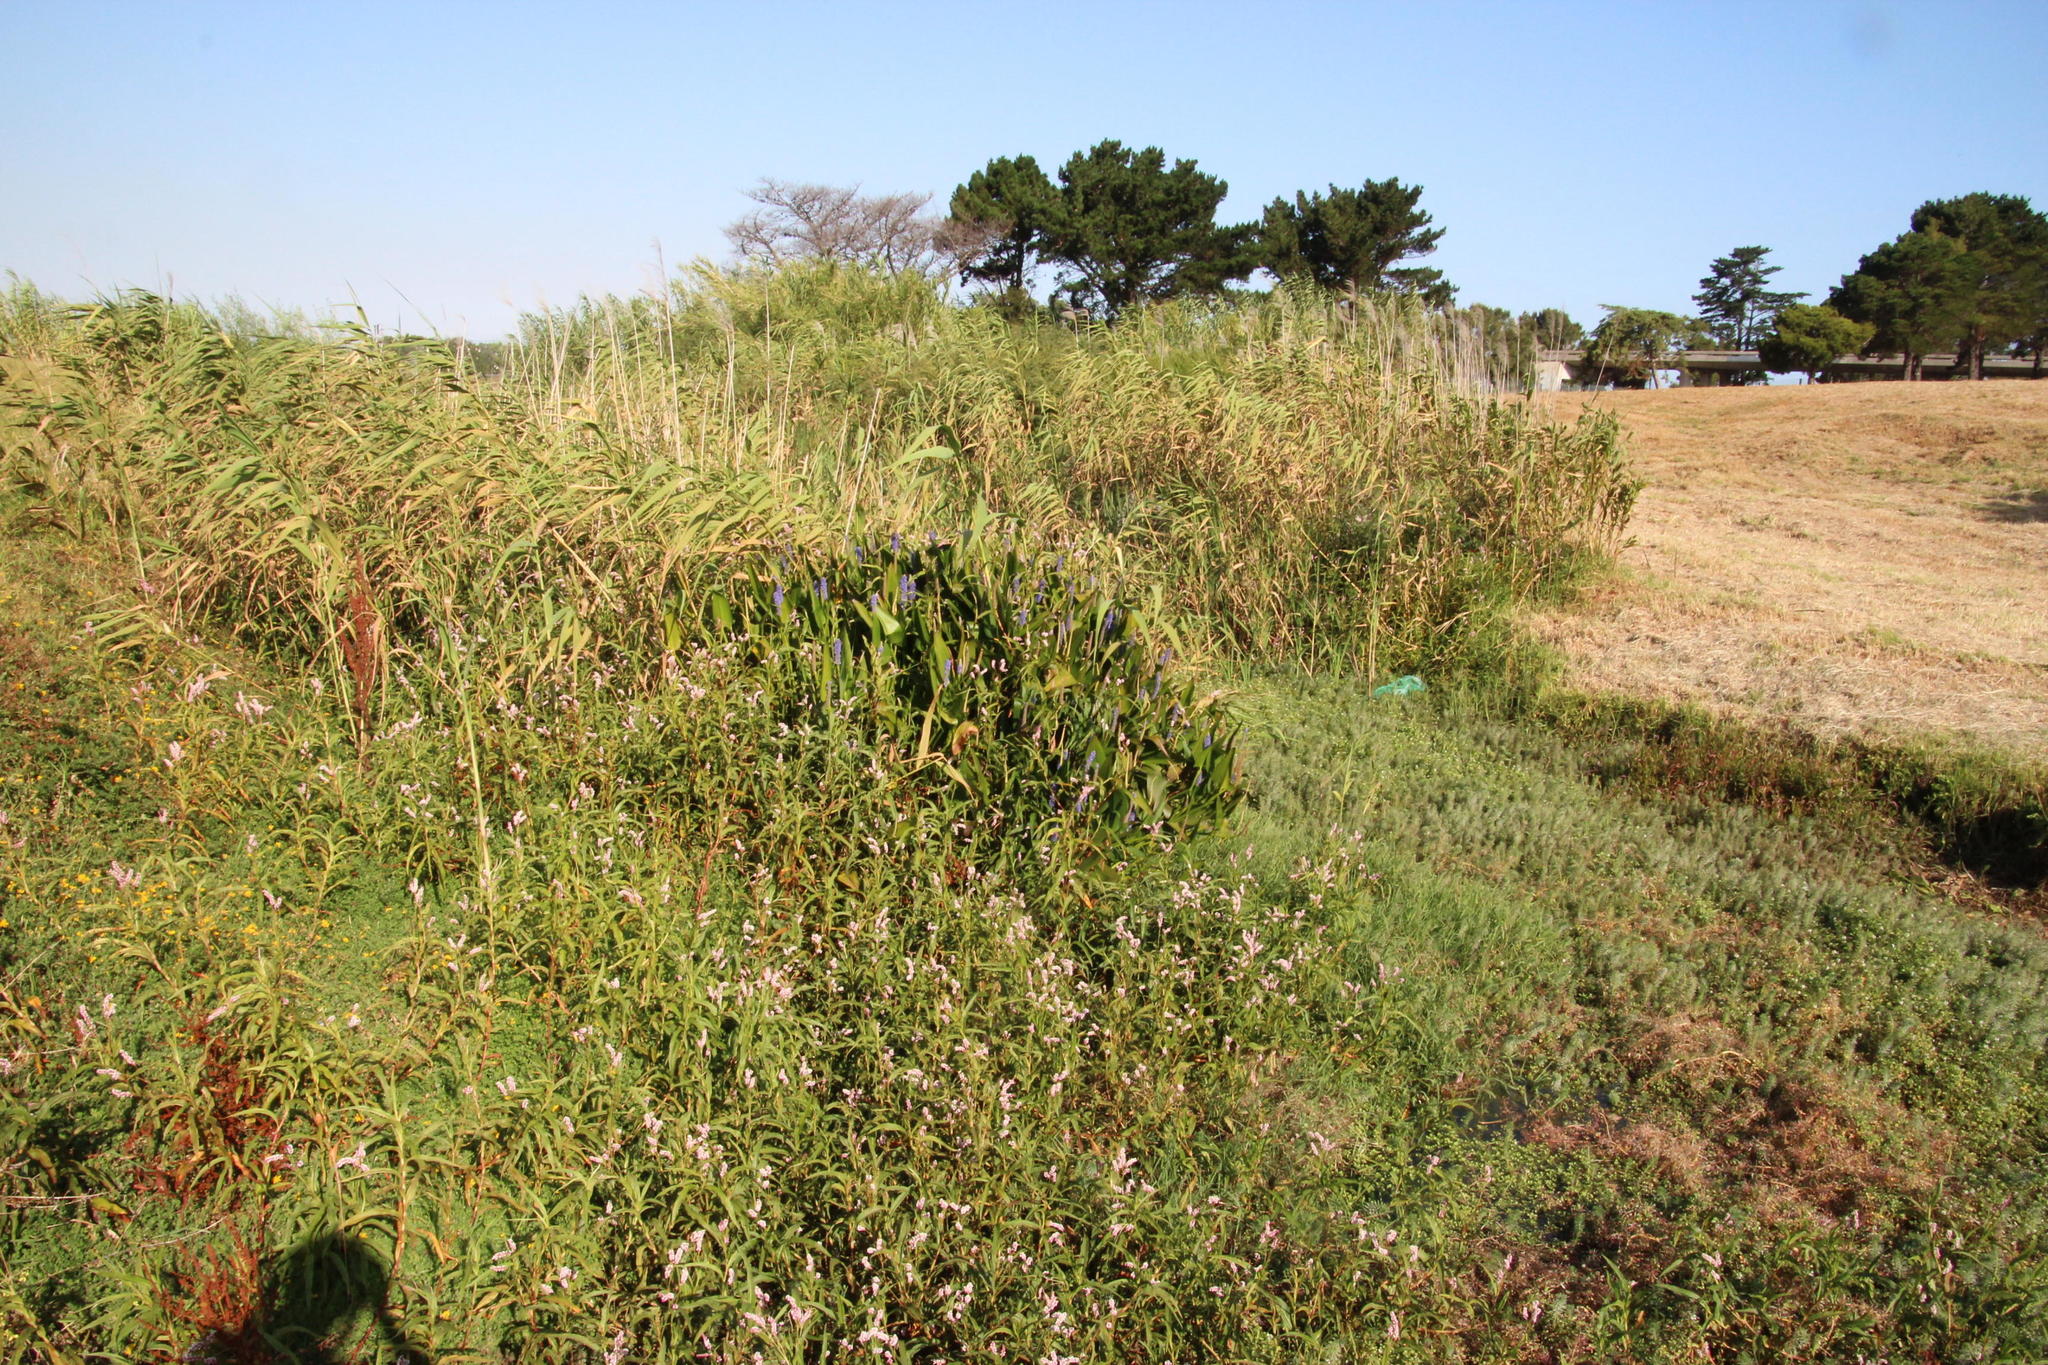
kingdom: Plantae
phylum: Tracheophyta
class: Liliopsida
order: Poales
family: Poaceae
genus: Phragmites
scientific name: Phragmites australis
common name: Common reed
